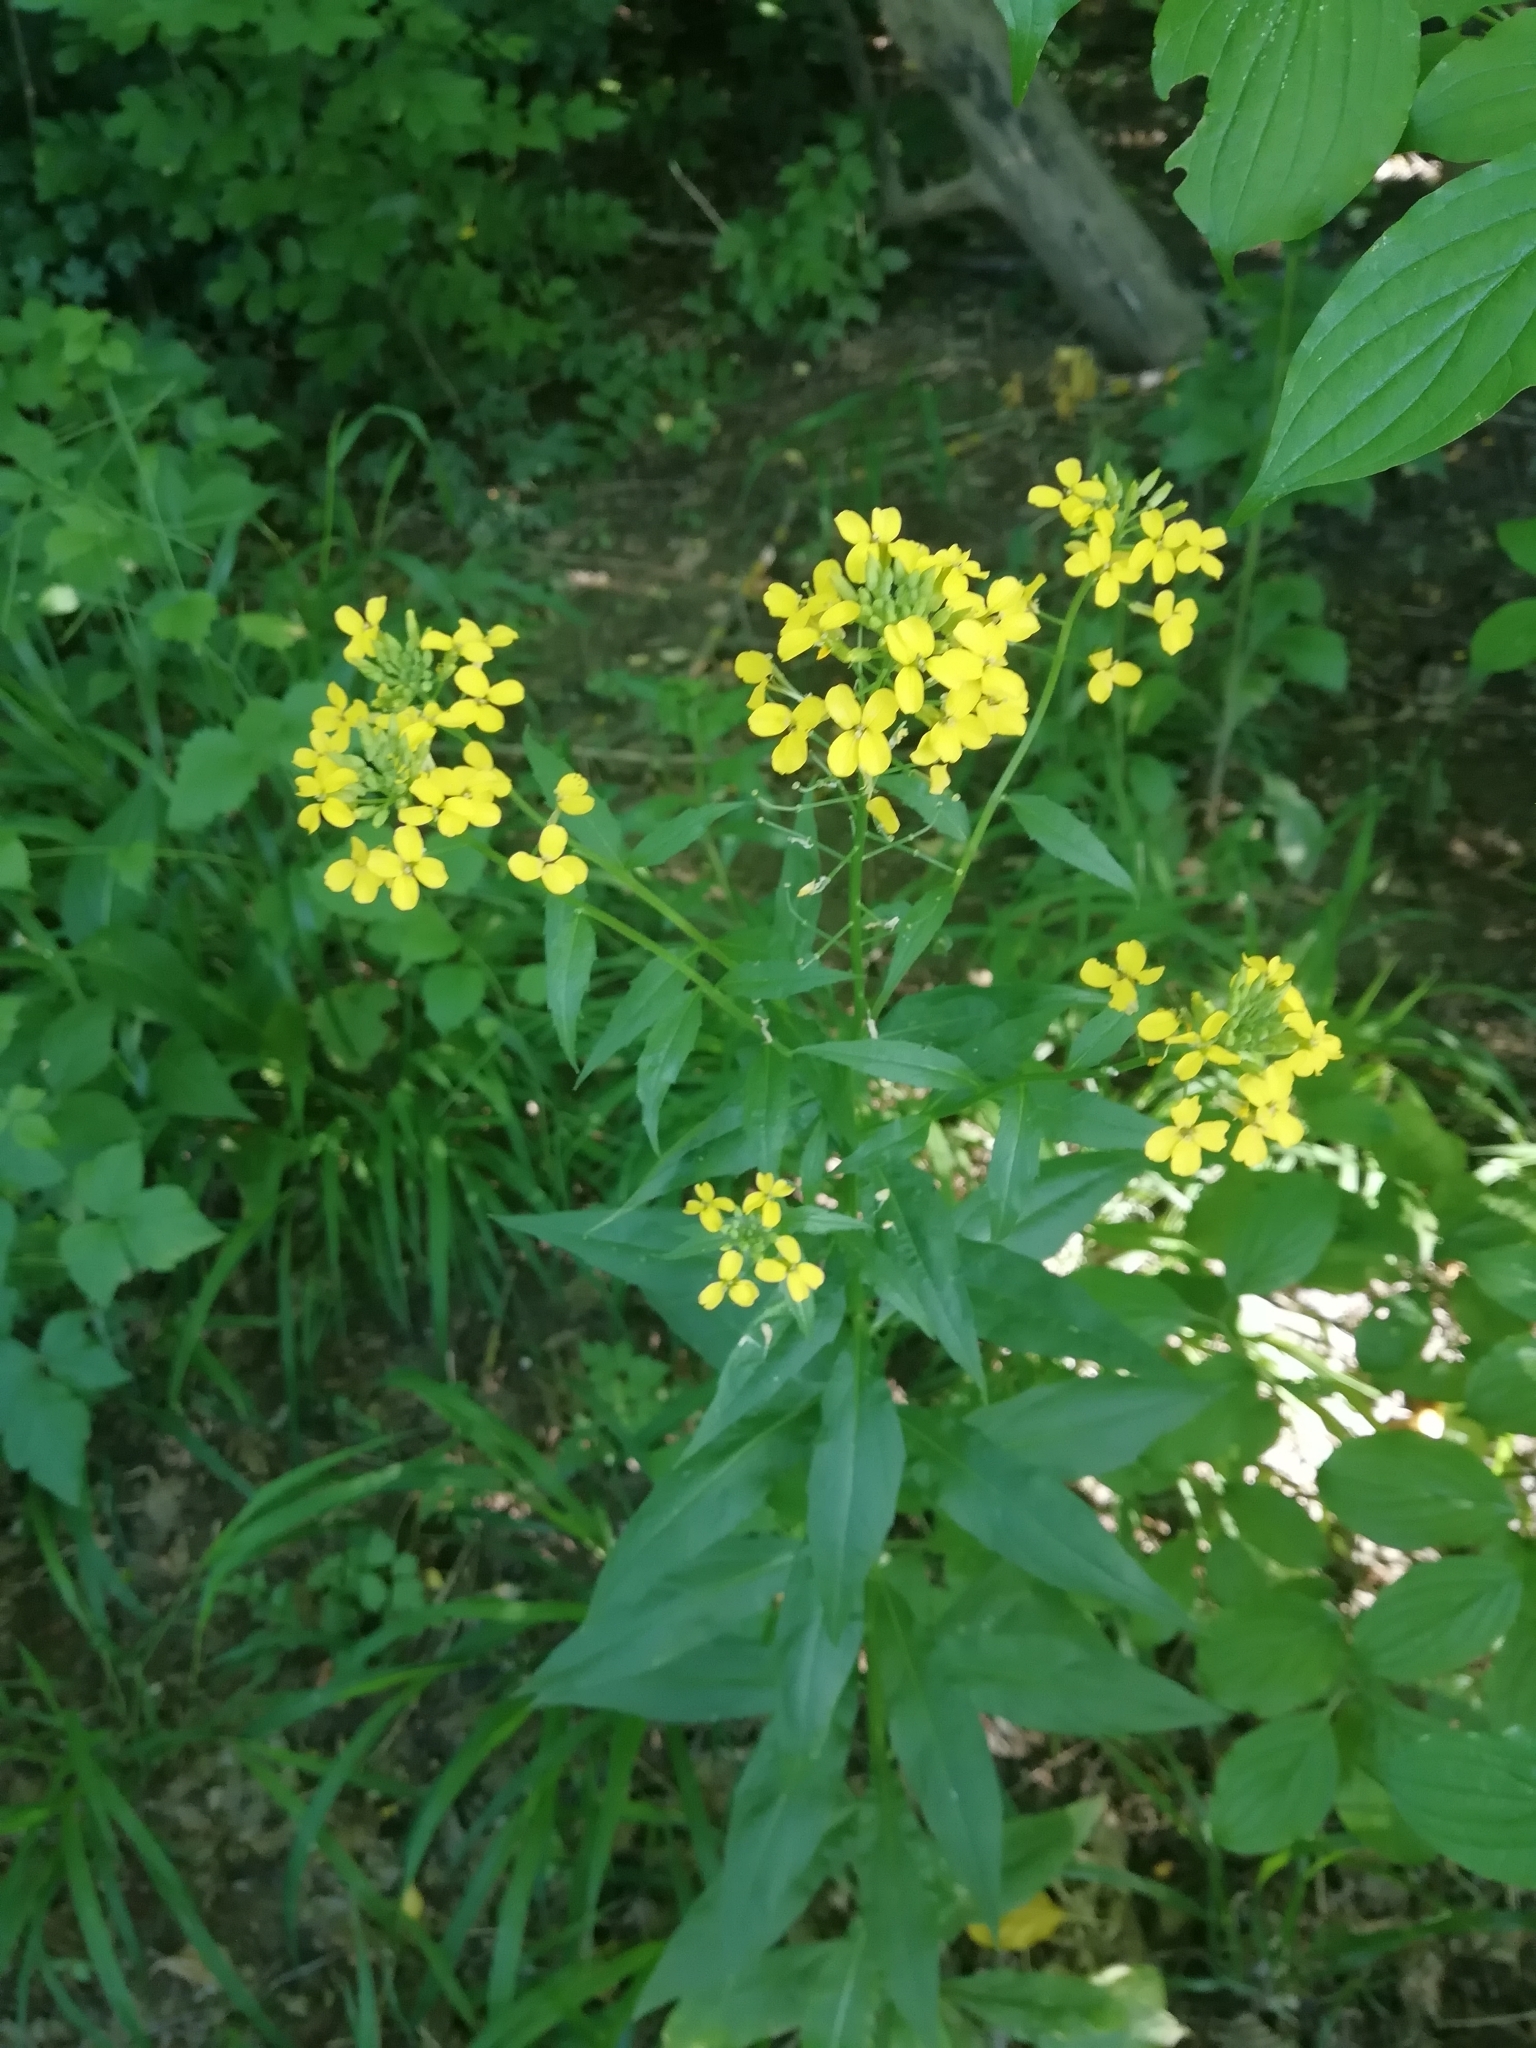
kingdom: Plantae
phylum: Tracheophyta
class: Magnoliopsida
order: Brassicales
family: Brassicaceae
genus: Erysimum
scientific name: Erysimum aureum
